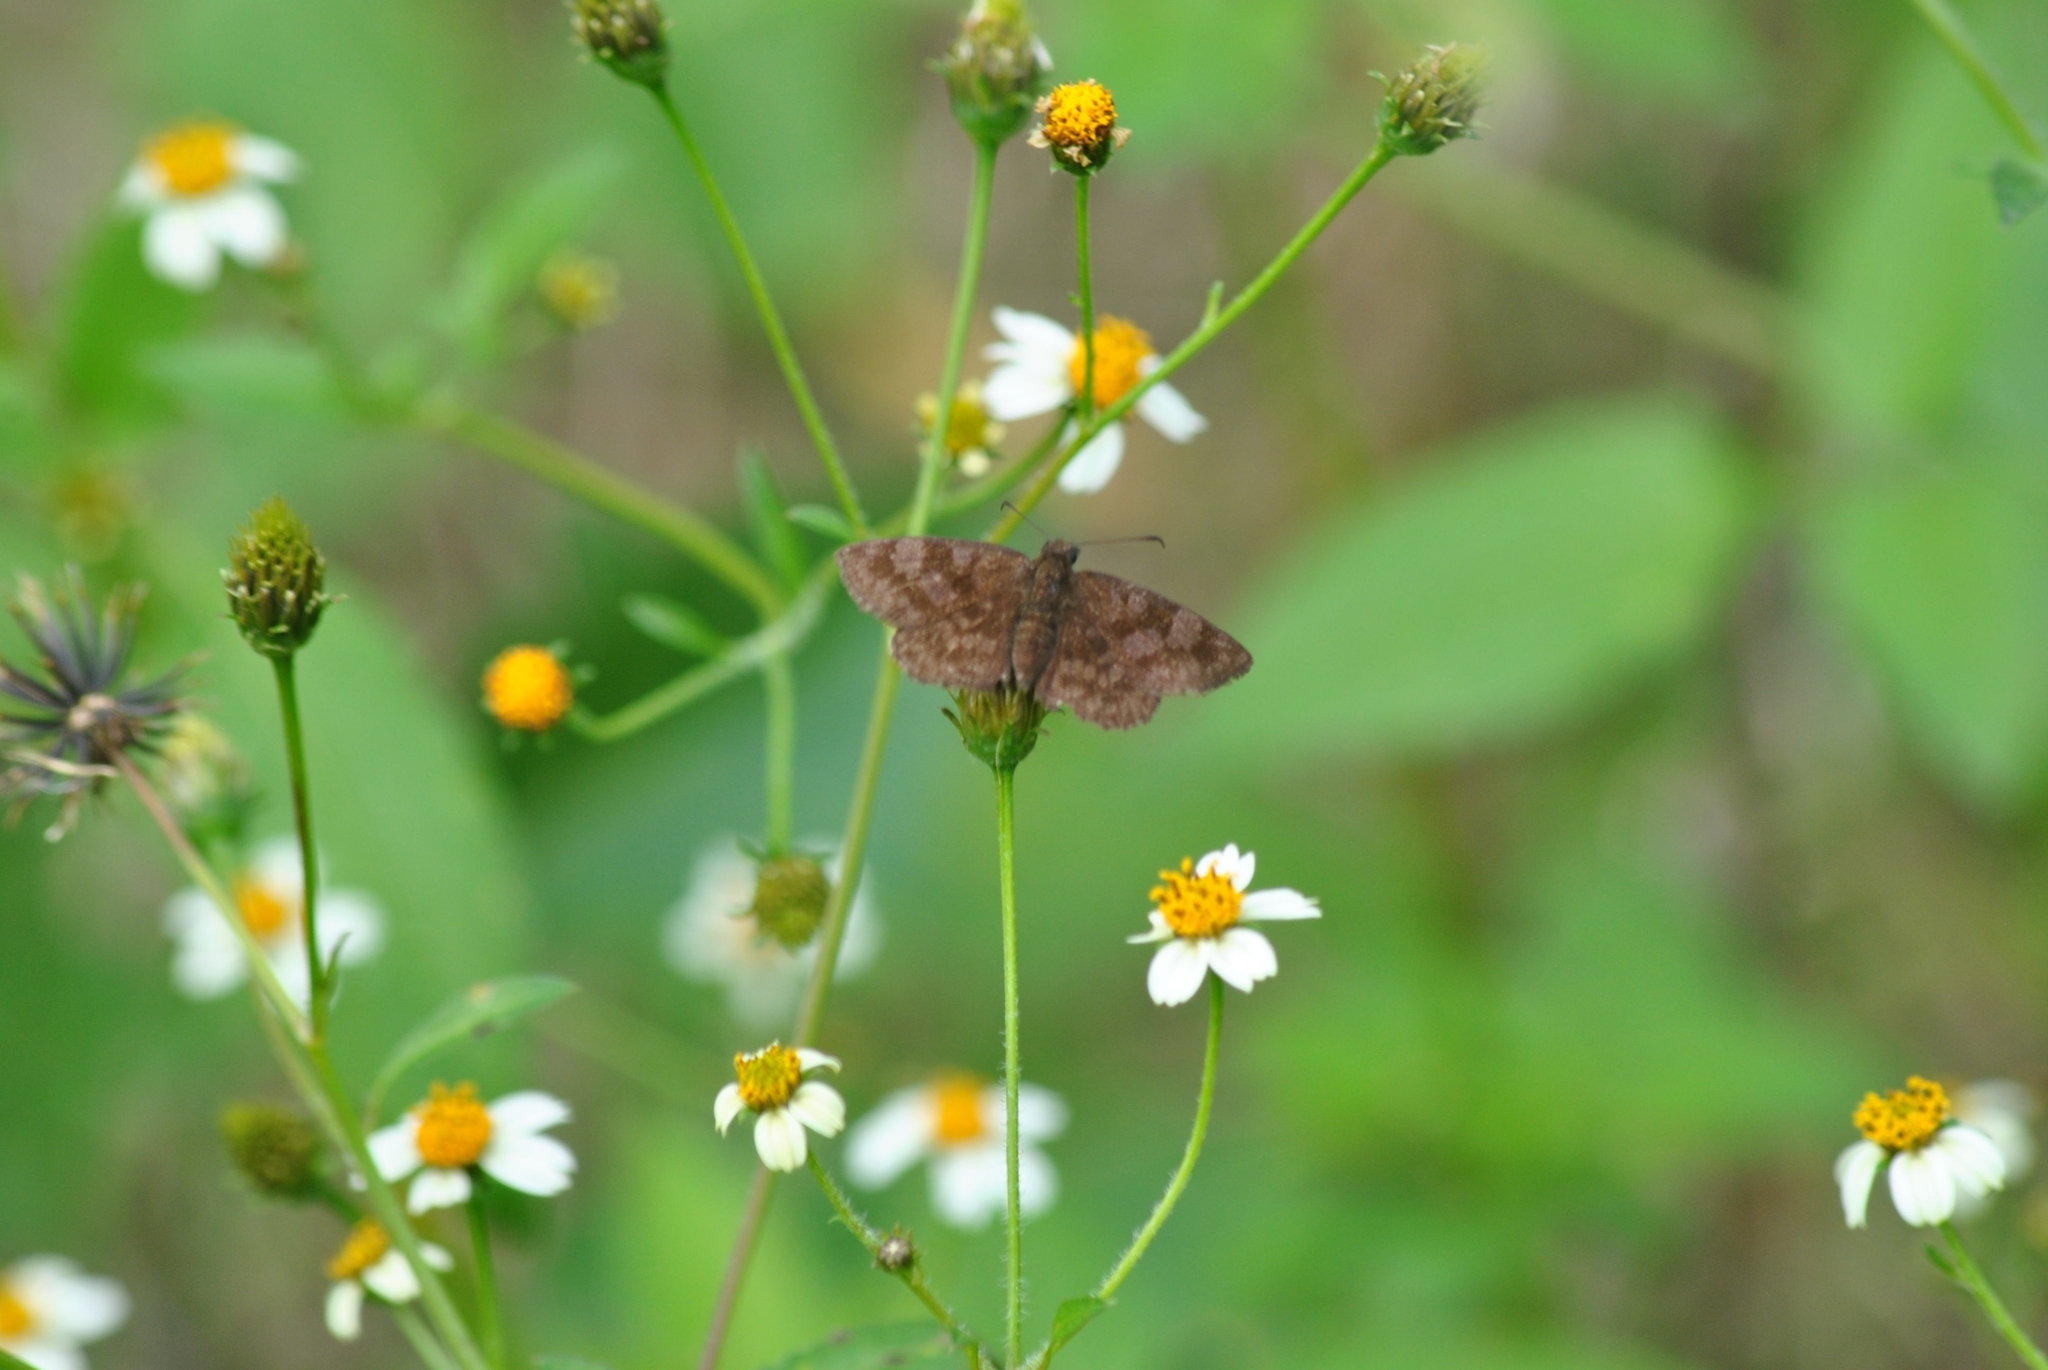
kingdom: Animalia
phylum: Arthropoda
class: Insecta
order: Lepidoptera
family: Hesperiidae
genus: Viola
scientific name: Viola minor
